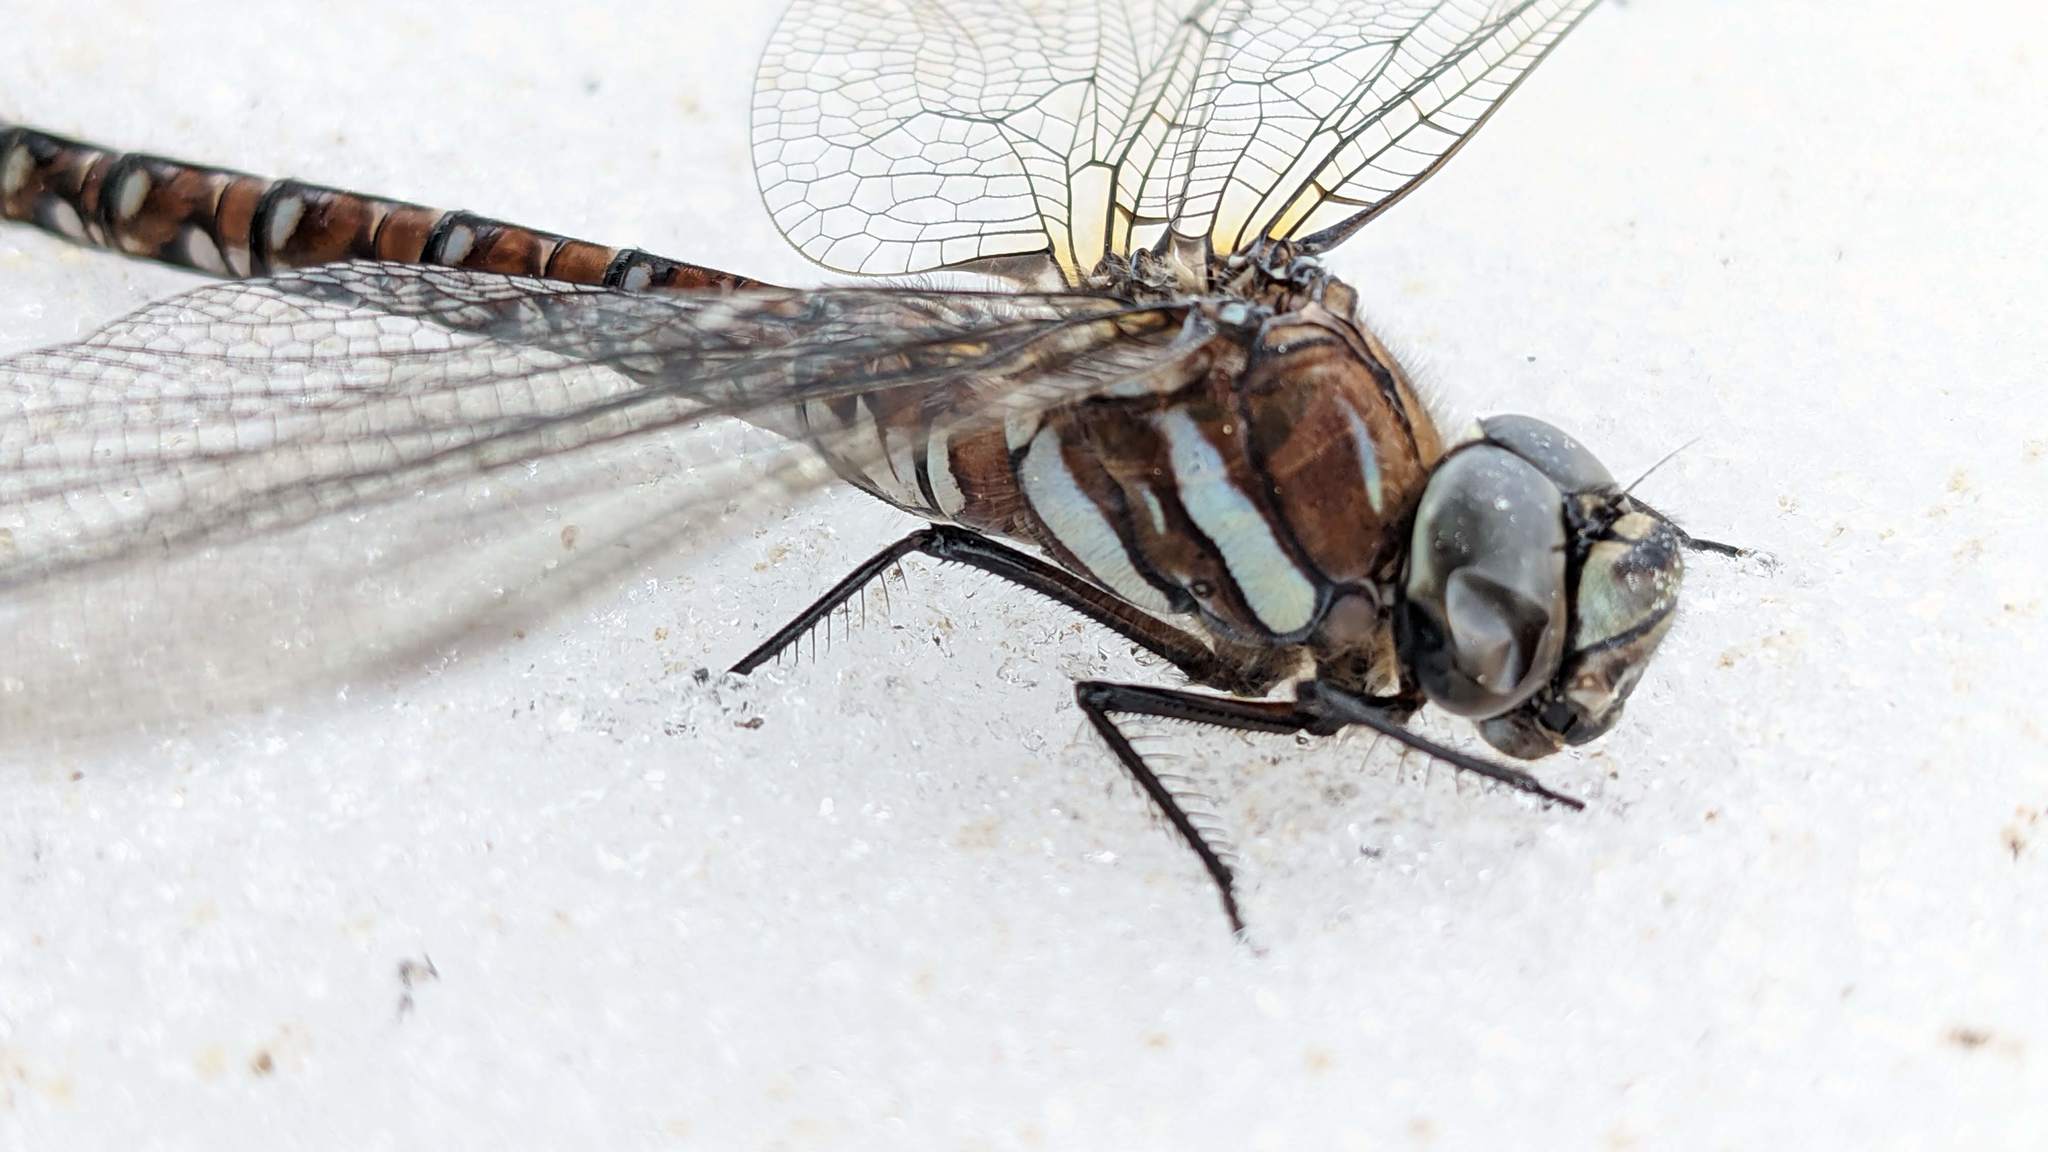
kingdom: Animalia
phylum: Arthropoda
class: Insecta
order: Odonata
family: Aeshnidae
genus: Aeshna
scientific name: Aeshna juncea
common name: Moorland hawker
